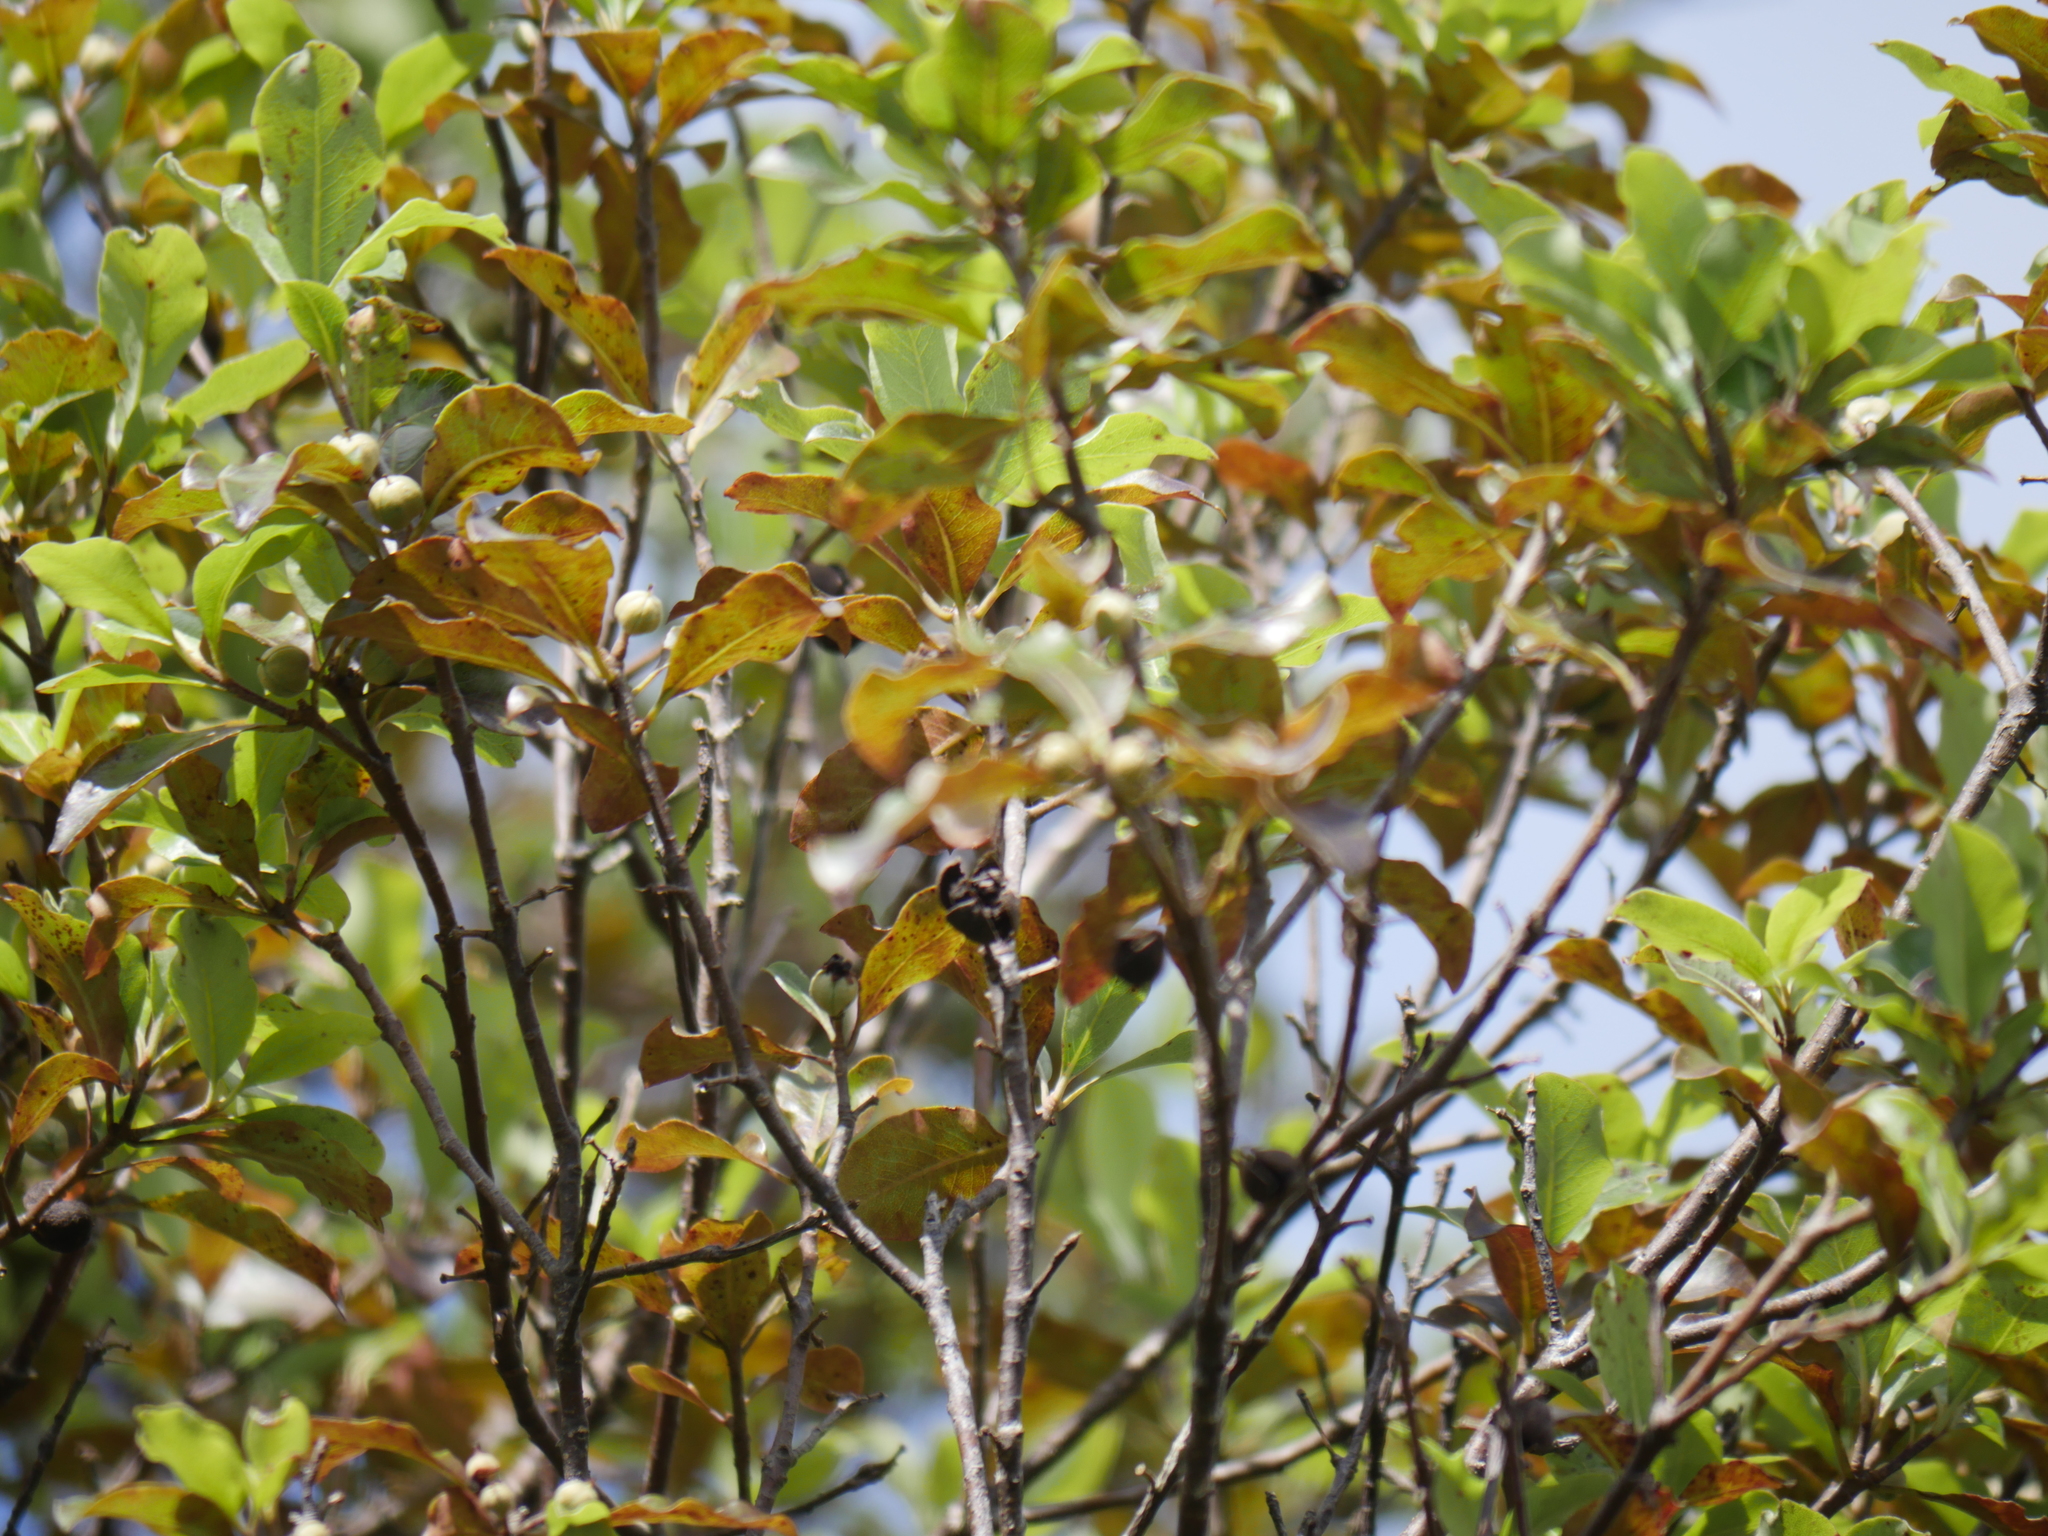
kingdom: Plantae
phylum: Tracheophyta
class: Magnoliopsida
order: Apiales
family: Pittosporaceae
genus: Pittosporum
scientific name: Pittosporum tenuifolium
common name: Kohuhu
